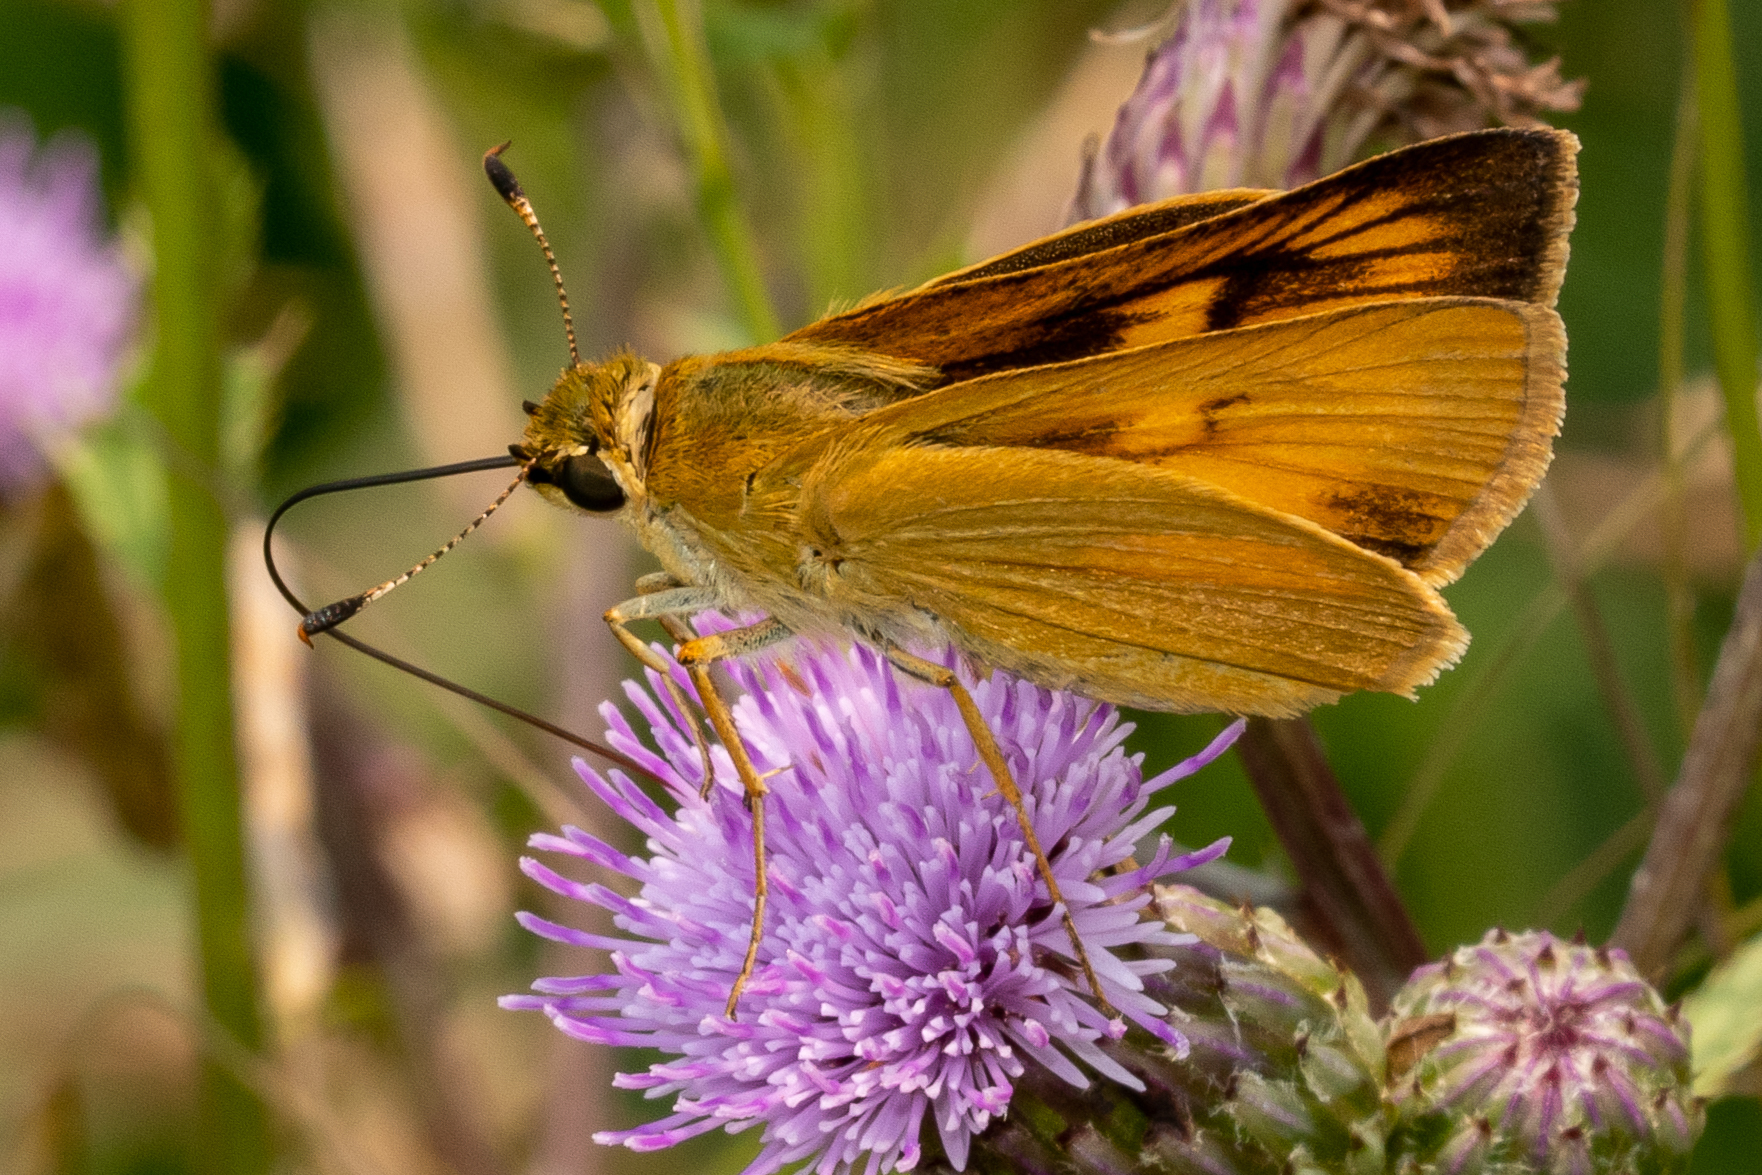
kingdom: Animalia
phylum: Arthropoda
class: Insecta
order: Lepidoptera
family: Hesperiidae
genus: Atrytone
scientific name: Atrytone delaware
